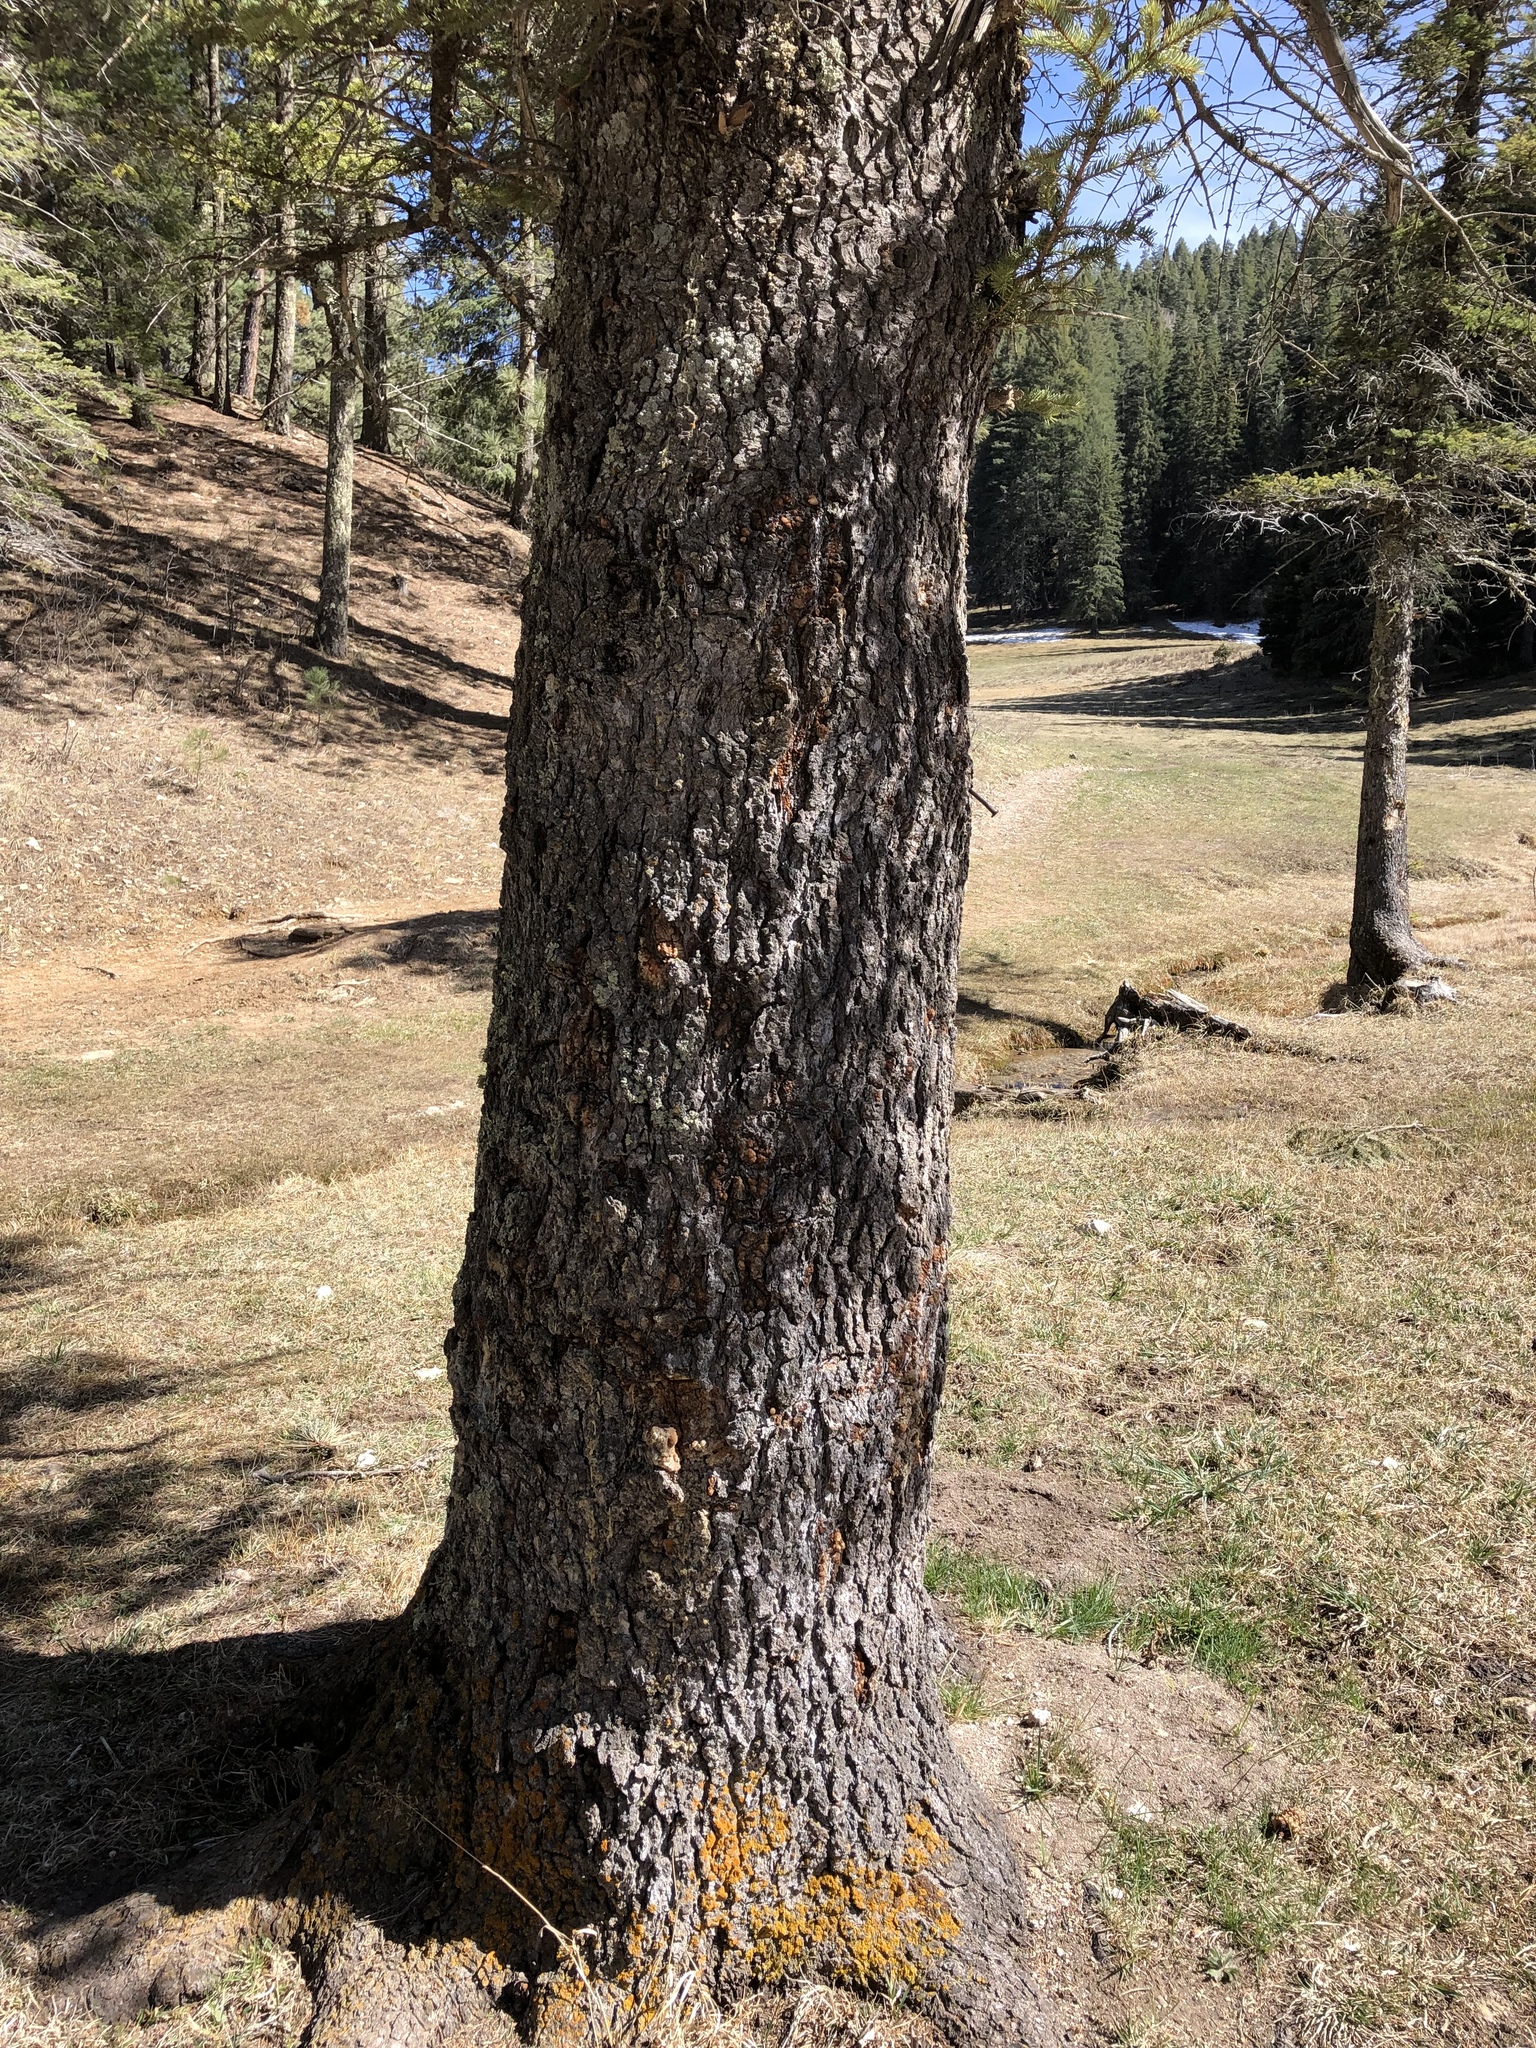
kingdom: Plantae
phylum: Tracheophyta
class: Pinopsida
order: Pinales
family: Pinaceae
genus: Picea
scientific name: Picea engelmannii
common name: Engelmann spruce
